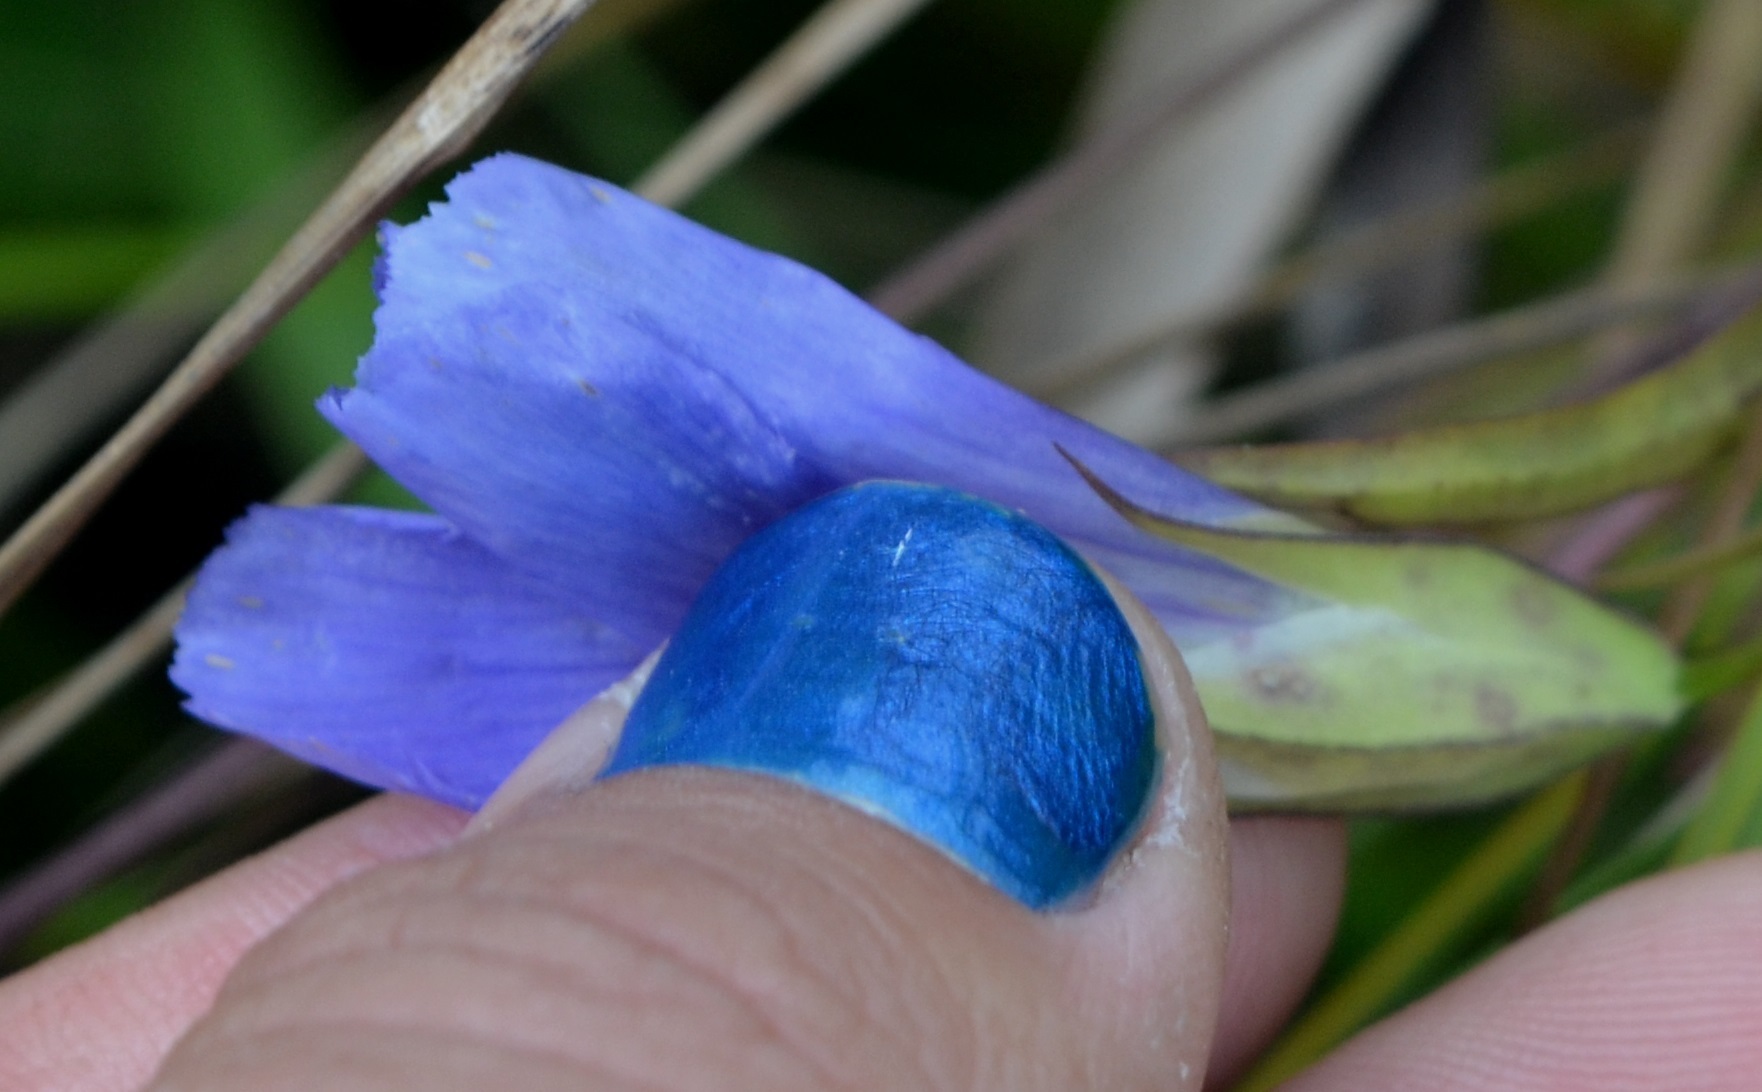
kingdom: Plantae
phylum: Tracheophyta
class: Magnoliopsida
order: Gentianales
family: Gentianaceae
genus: Gentianopsis
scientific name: Gentianopsis virgata
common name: Lesser fringed-gentian
